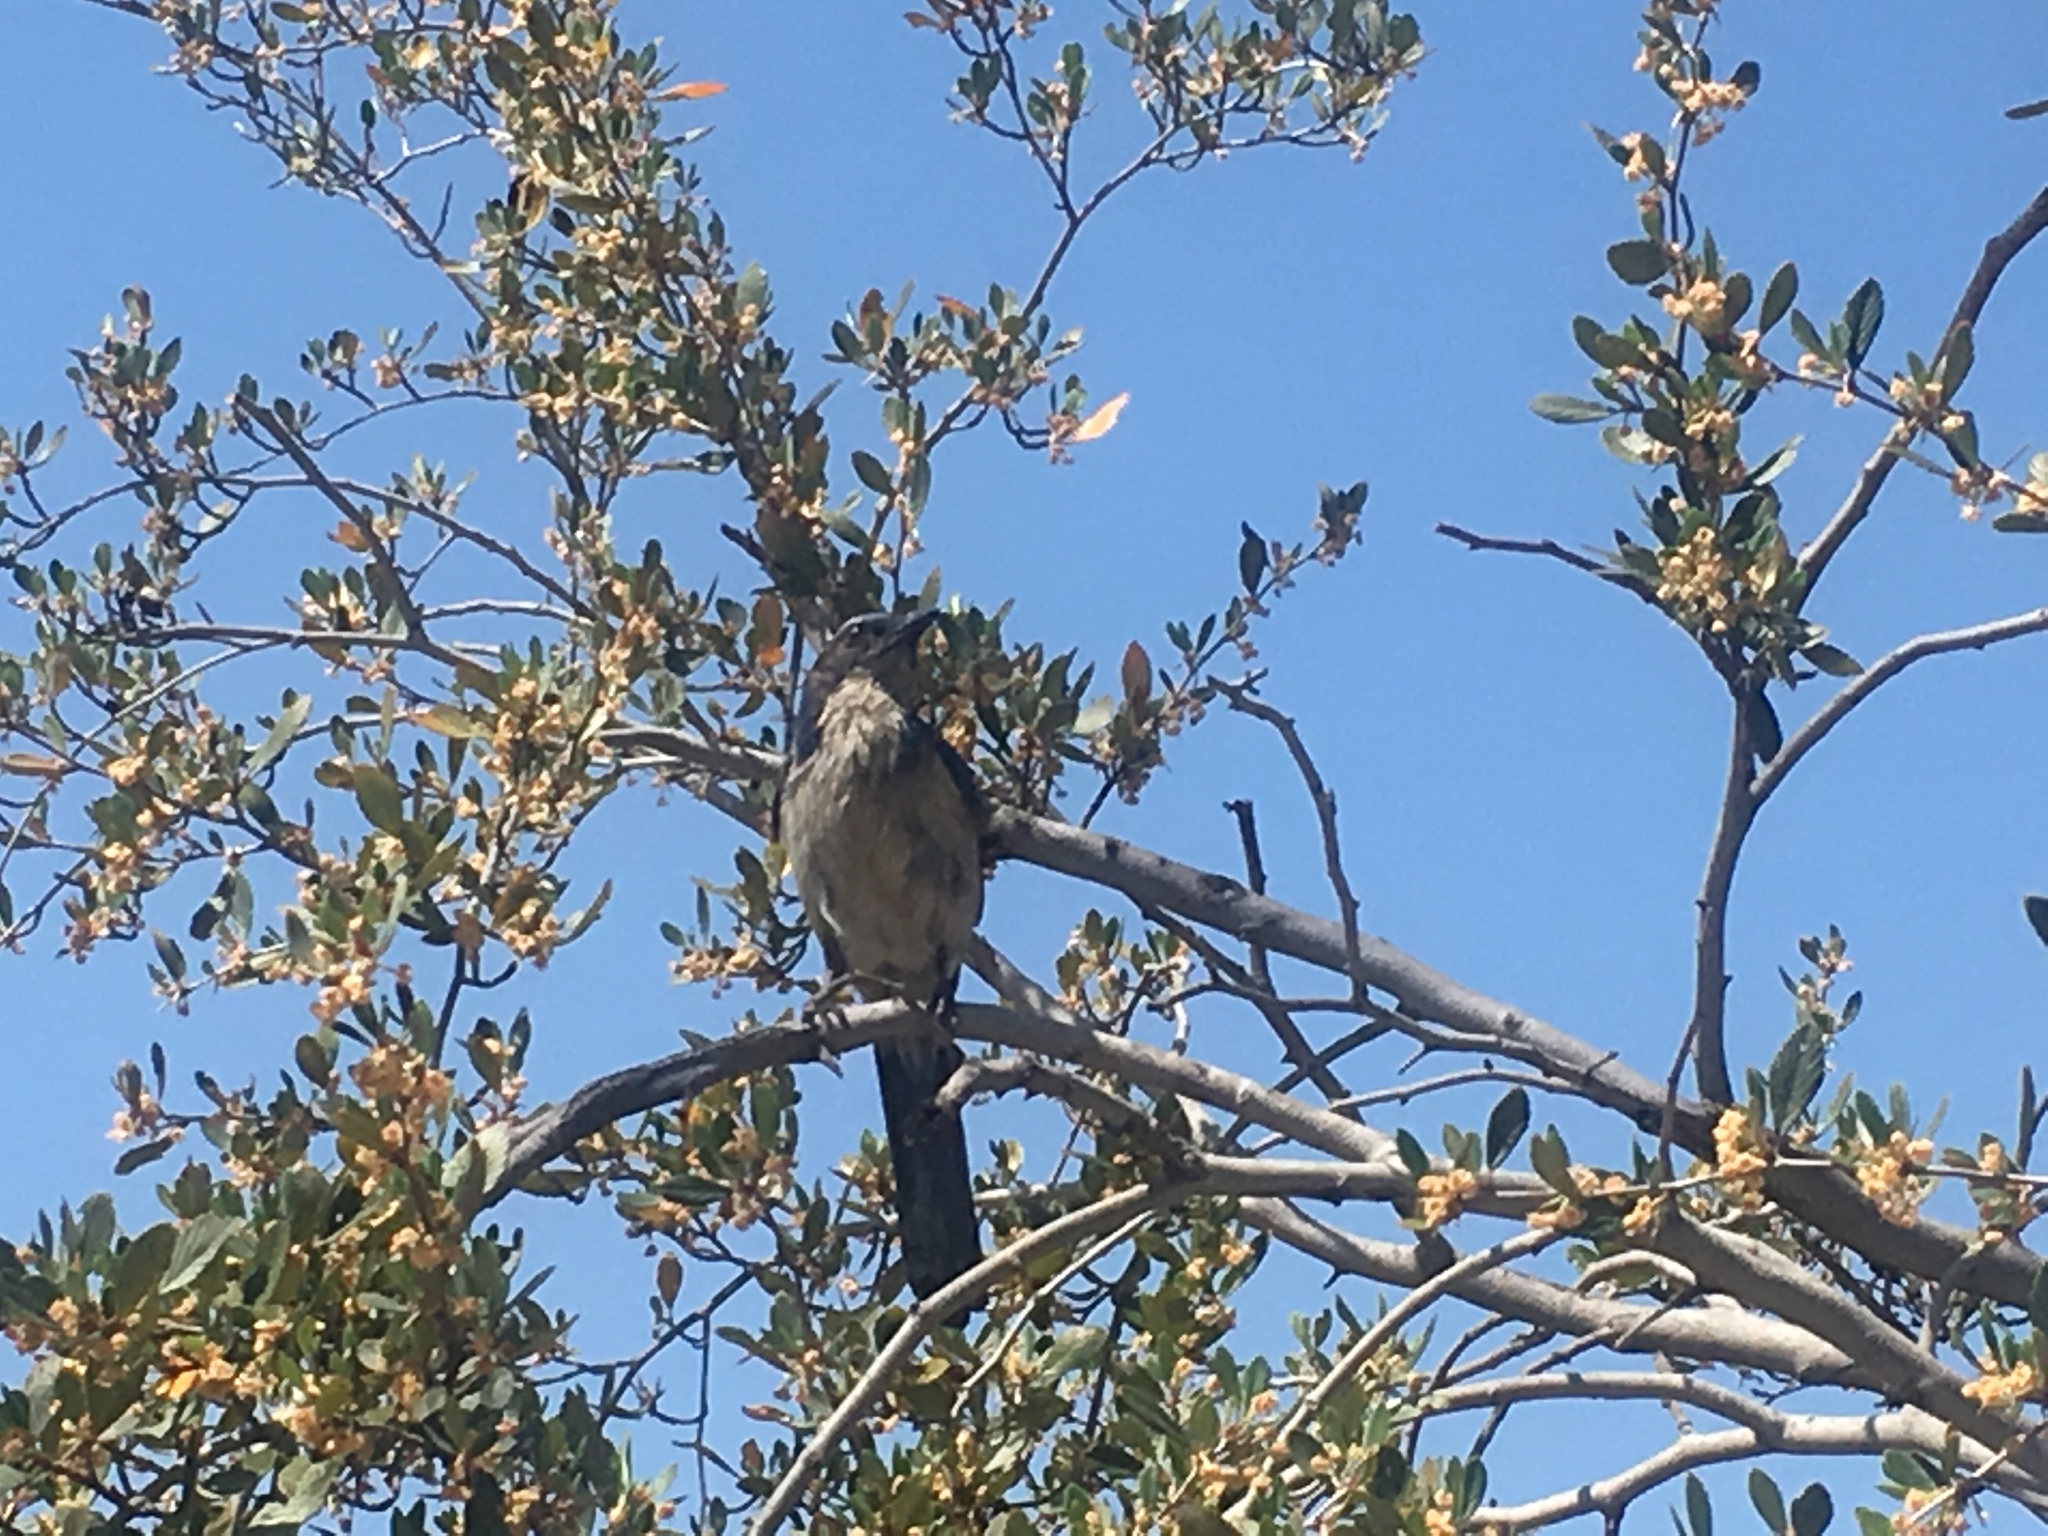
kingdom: Animalia
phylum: Chordata
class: Aves
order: Passeriformes
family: Corvidae
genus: Aphelocoma
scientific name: Aphelocoma californica
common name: California scrub-jay
